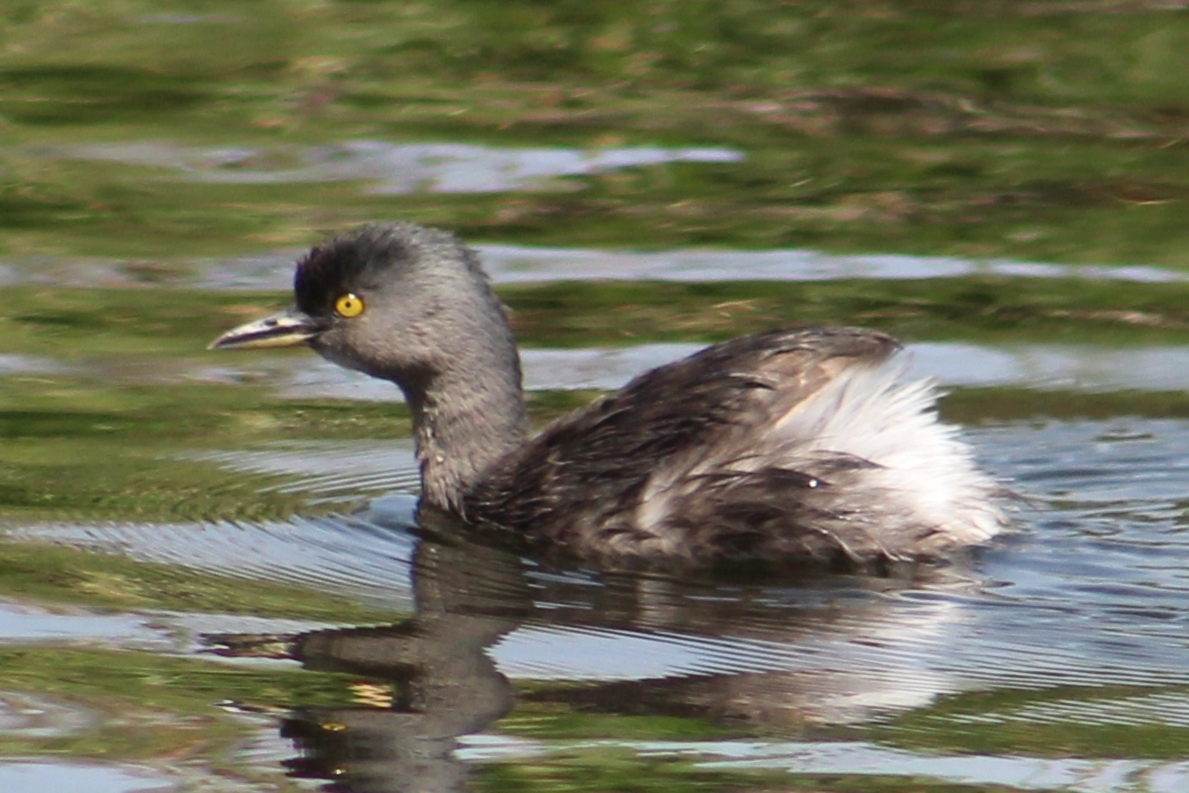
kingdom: Animalia
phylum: Chordata
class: Aves
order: Podicipediformes
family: Podicipedidae
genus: Tachybaptus
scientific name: Tachybaptus dominicus
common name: Least grebe
